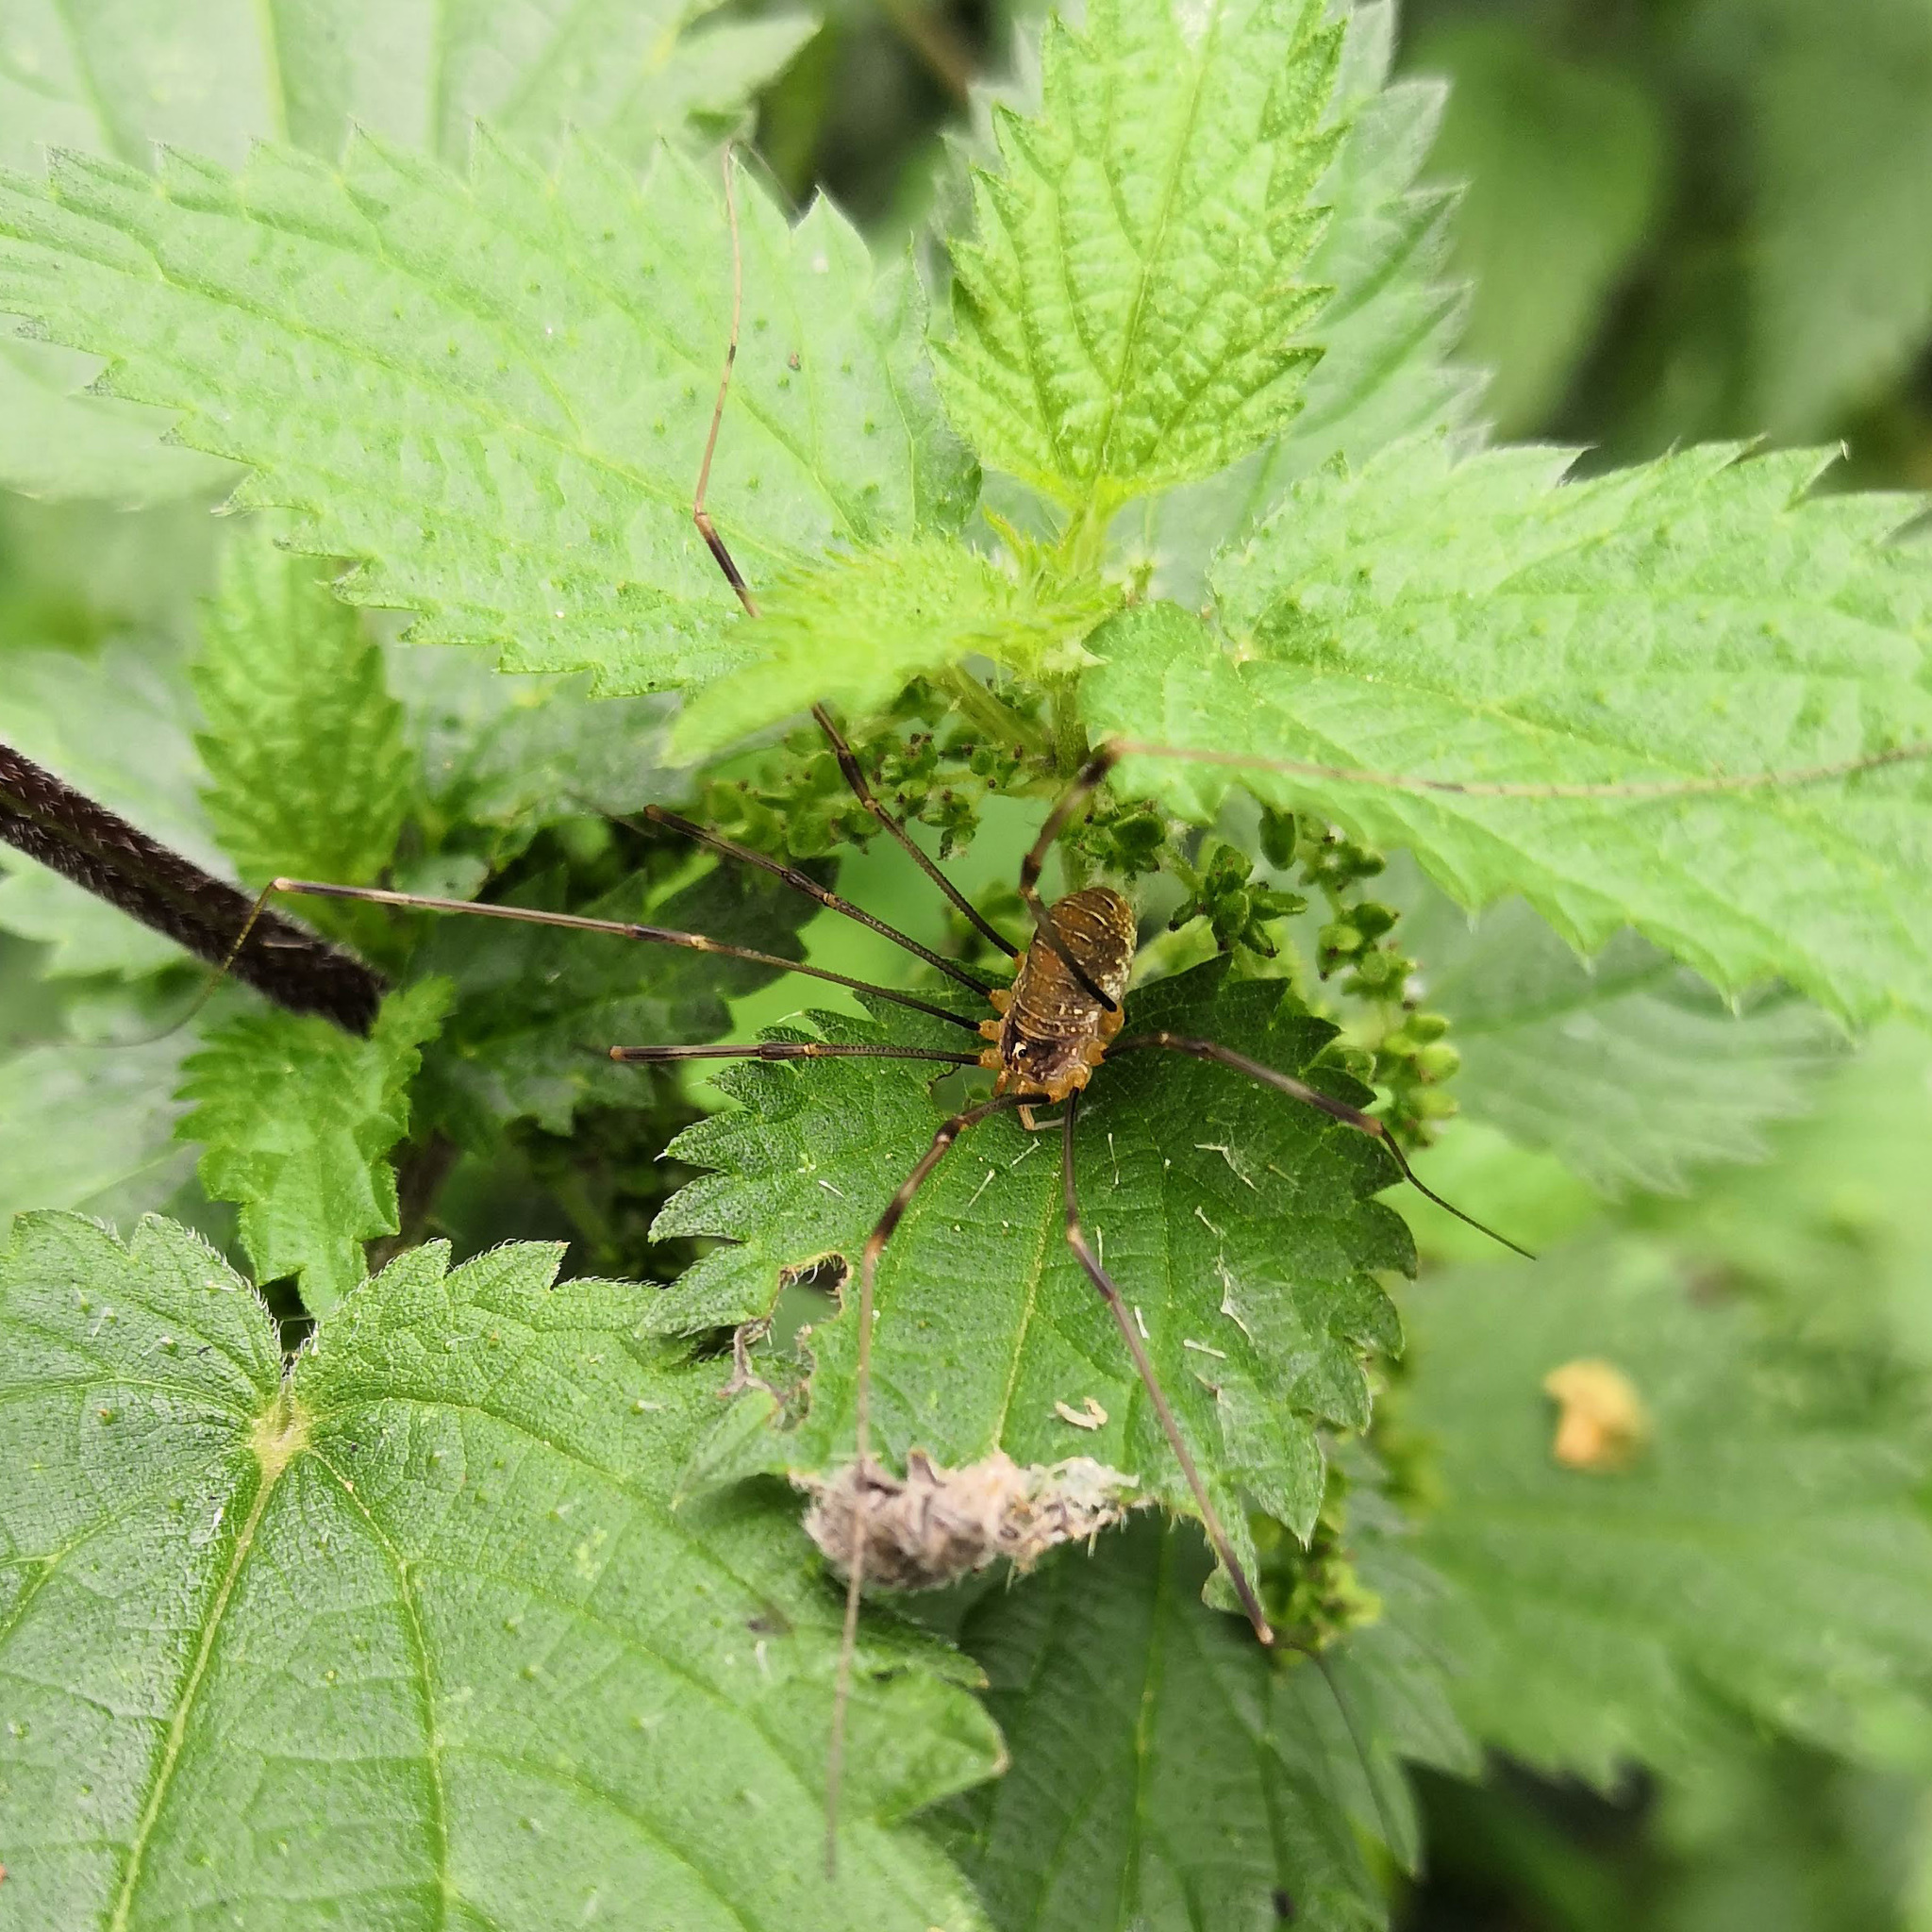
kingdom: Animalia
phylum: Arthropoda
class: Arachnida
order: Opiliones
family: Phalangiidae
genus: Opilio
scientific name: Opilio canestrinii
